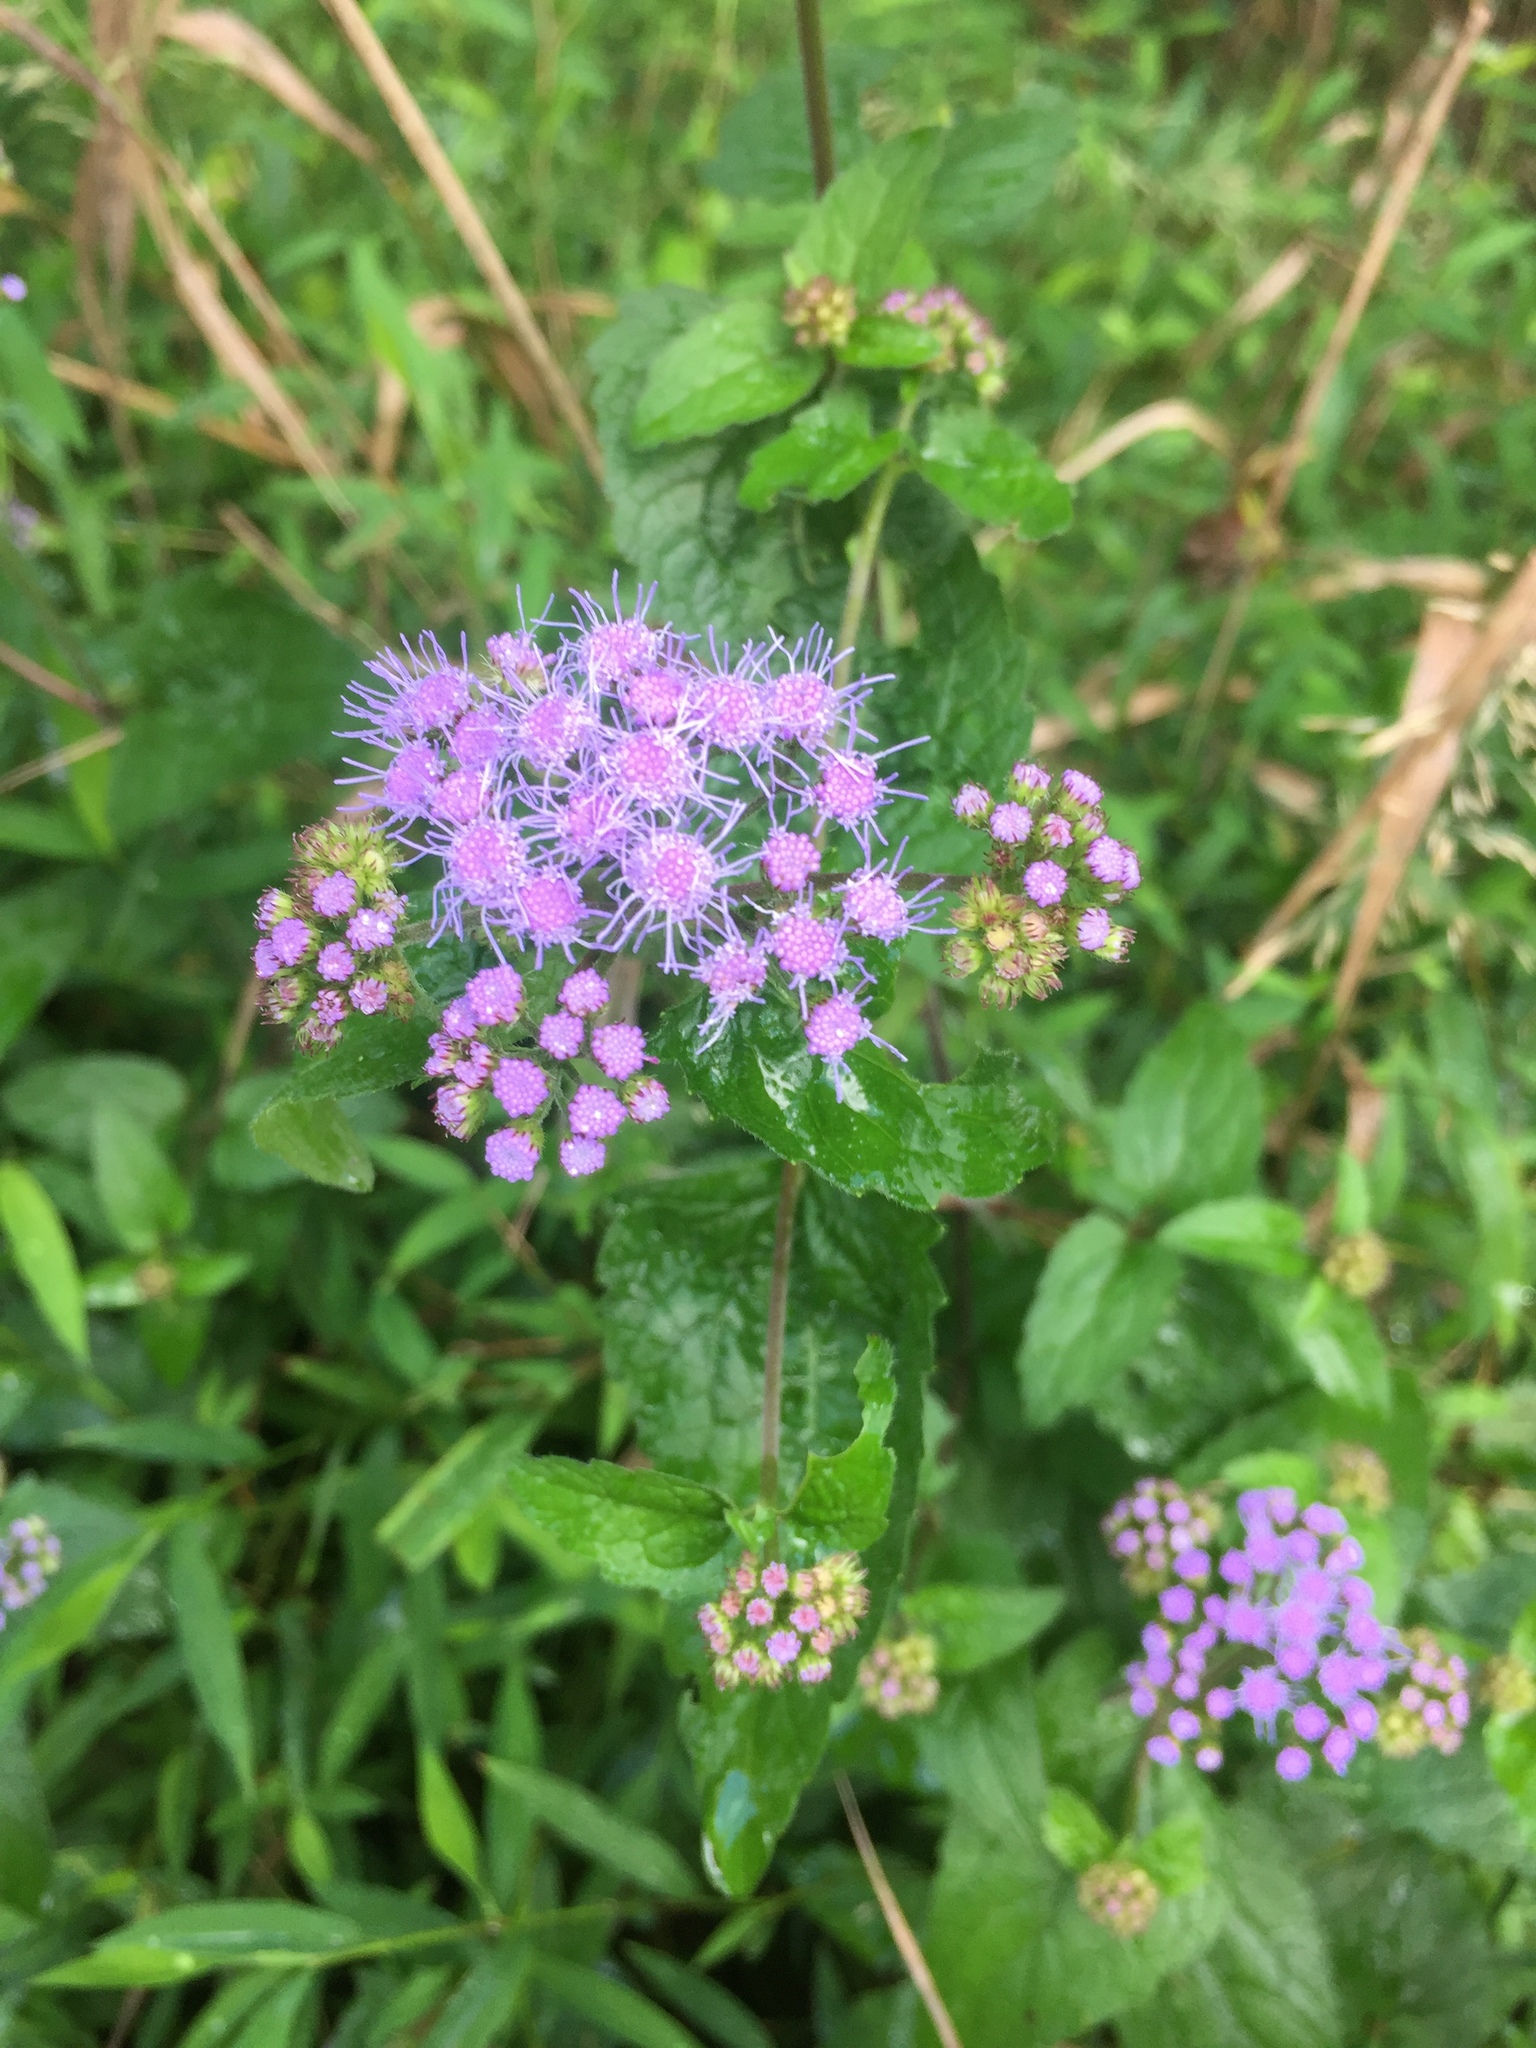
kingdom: Plantae
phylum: Tracheophyta
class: Magnoliopsida
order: Asterales
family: Asteraceae
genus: Conoclinium
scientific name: Conoclinium coelestinum
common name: Blue mistflower
